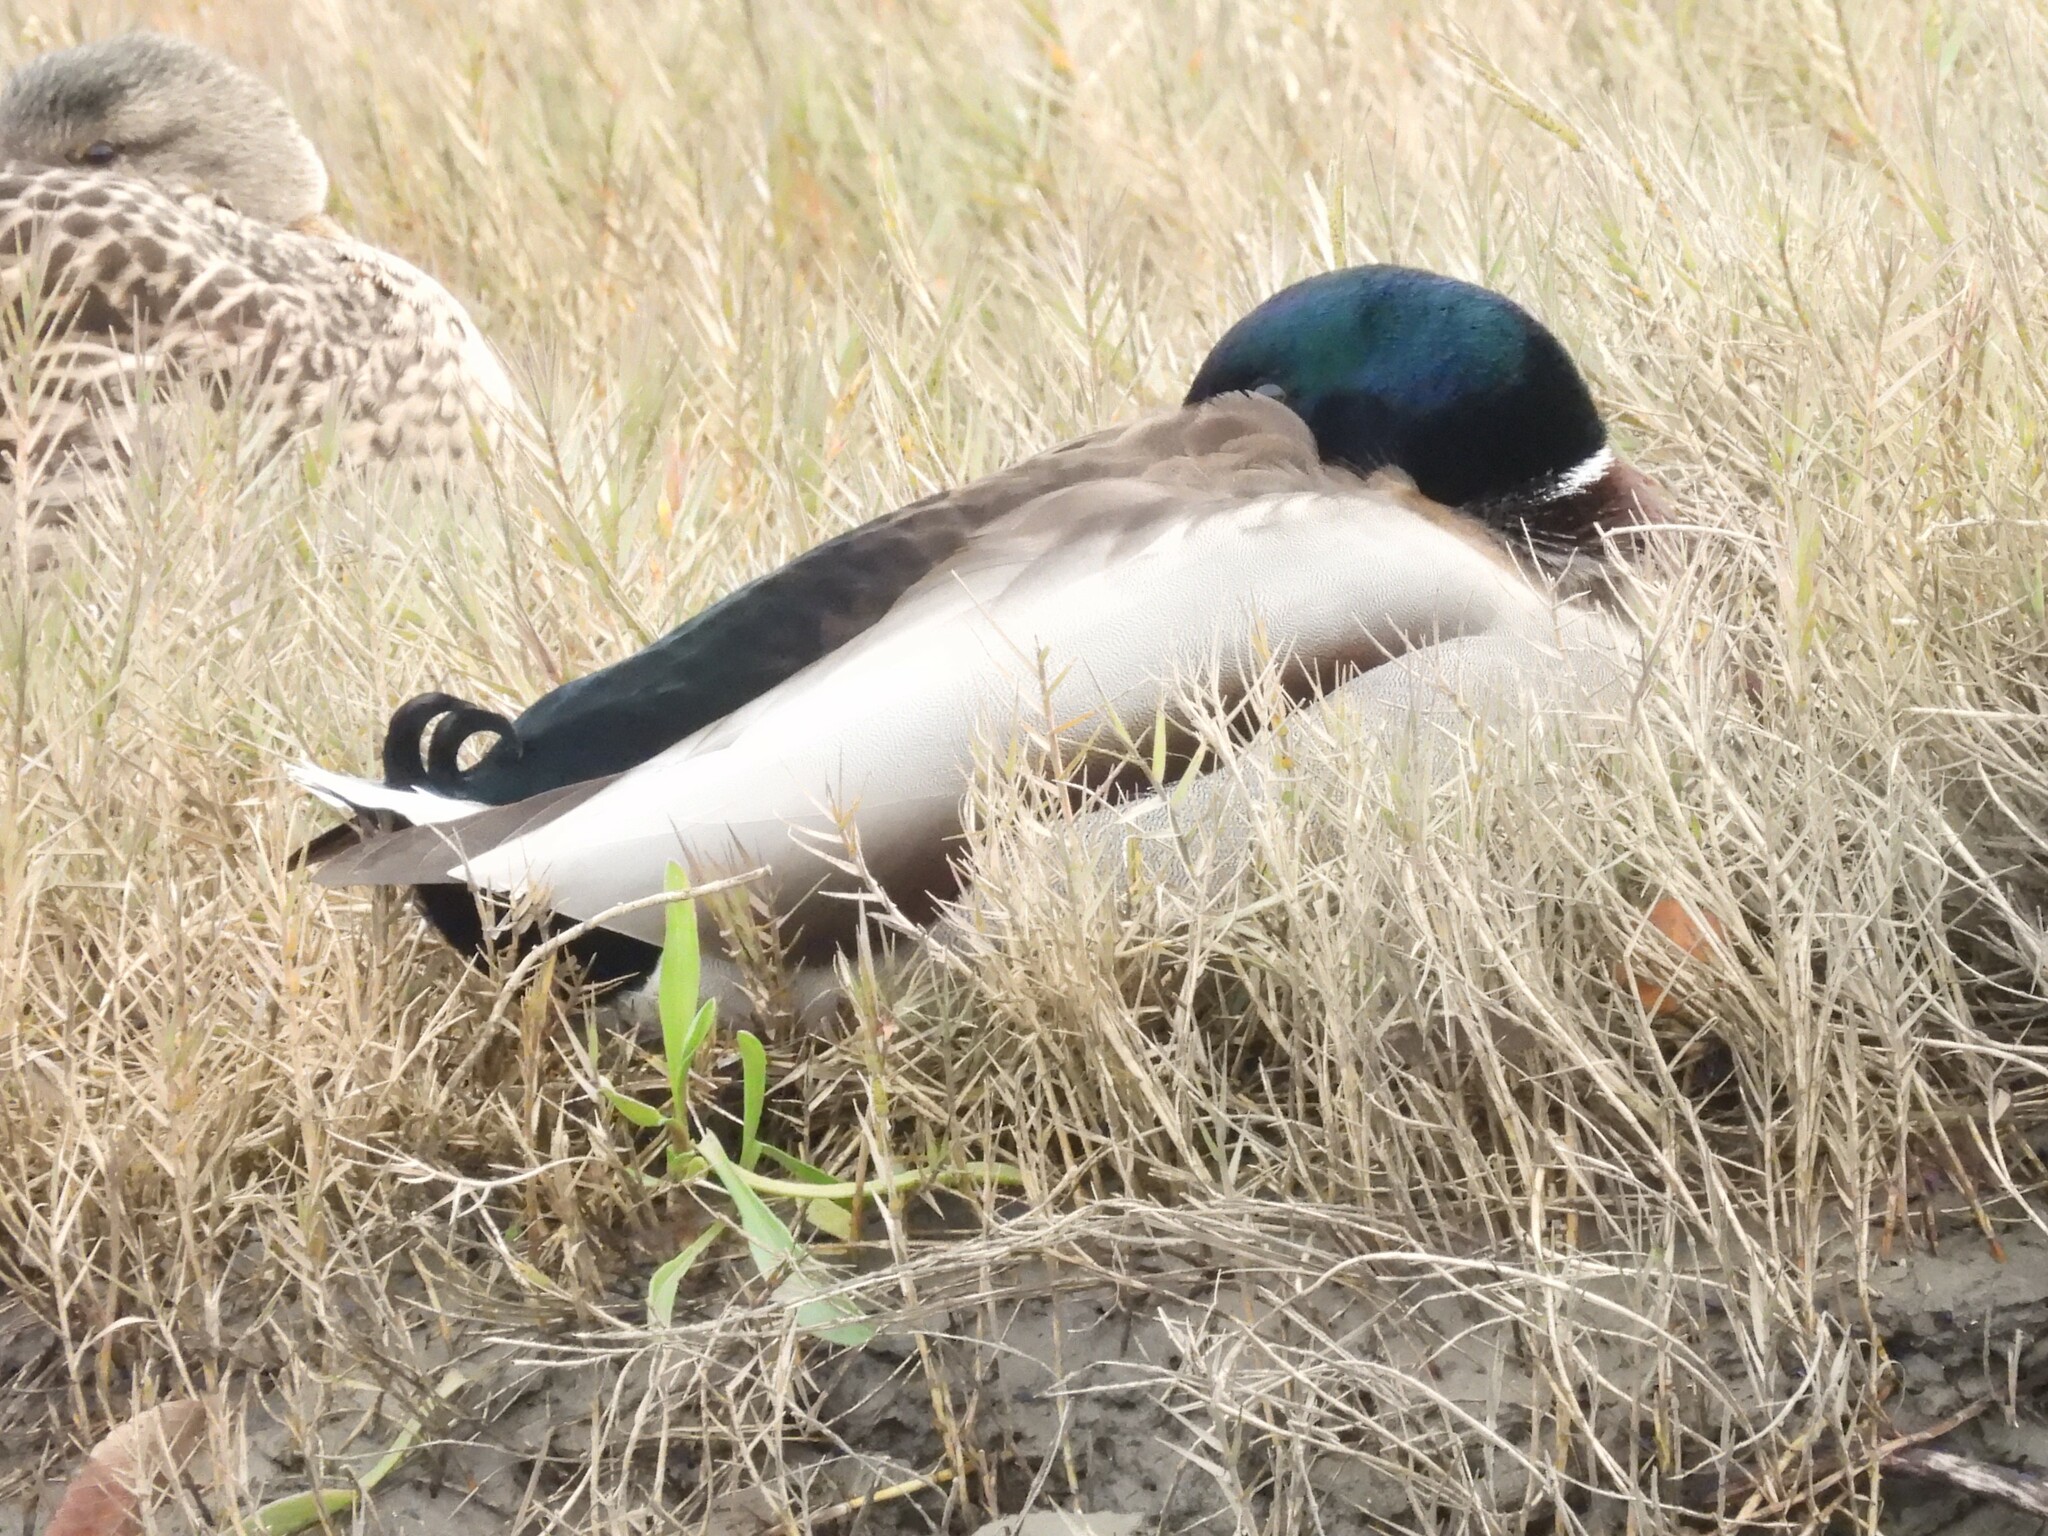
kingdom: Animalia
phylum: Chordata
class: Aves
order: Anseriformes
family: Anatidae
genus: Anas
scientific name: Anas platyrhynchos
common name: Mallard
